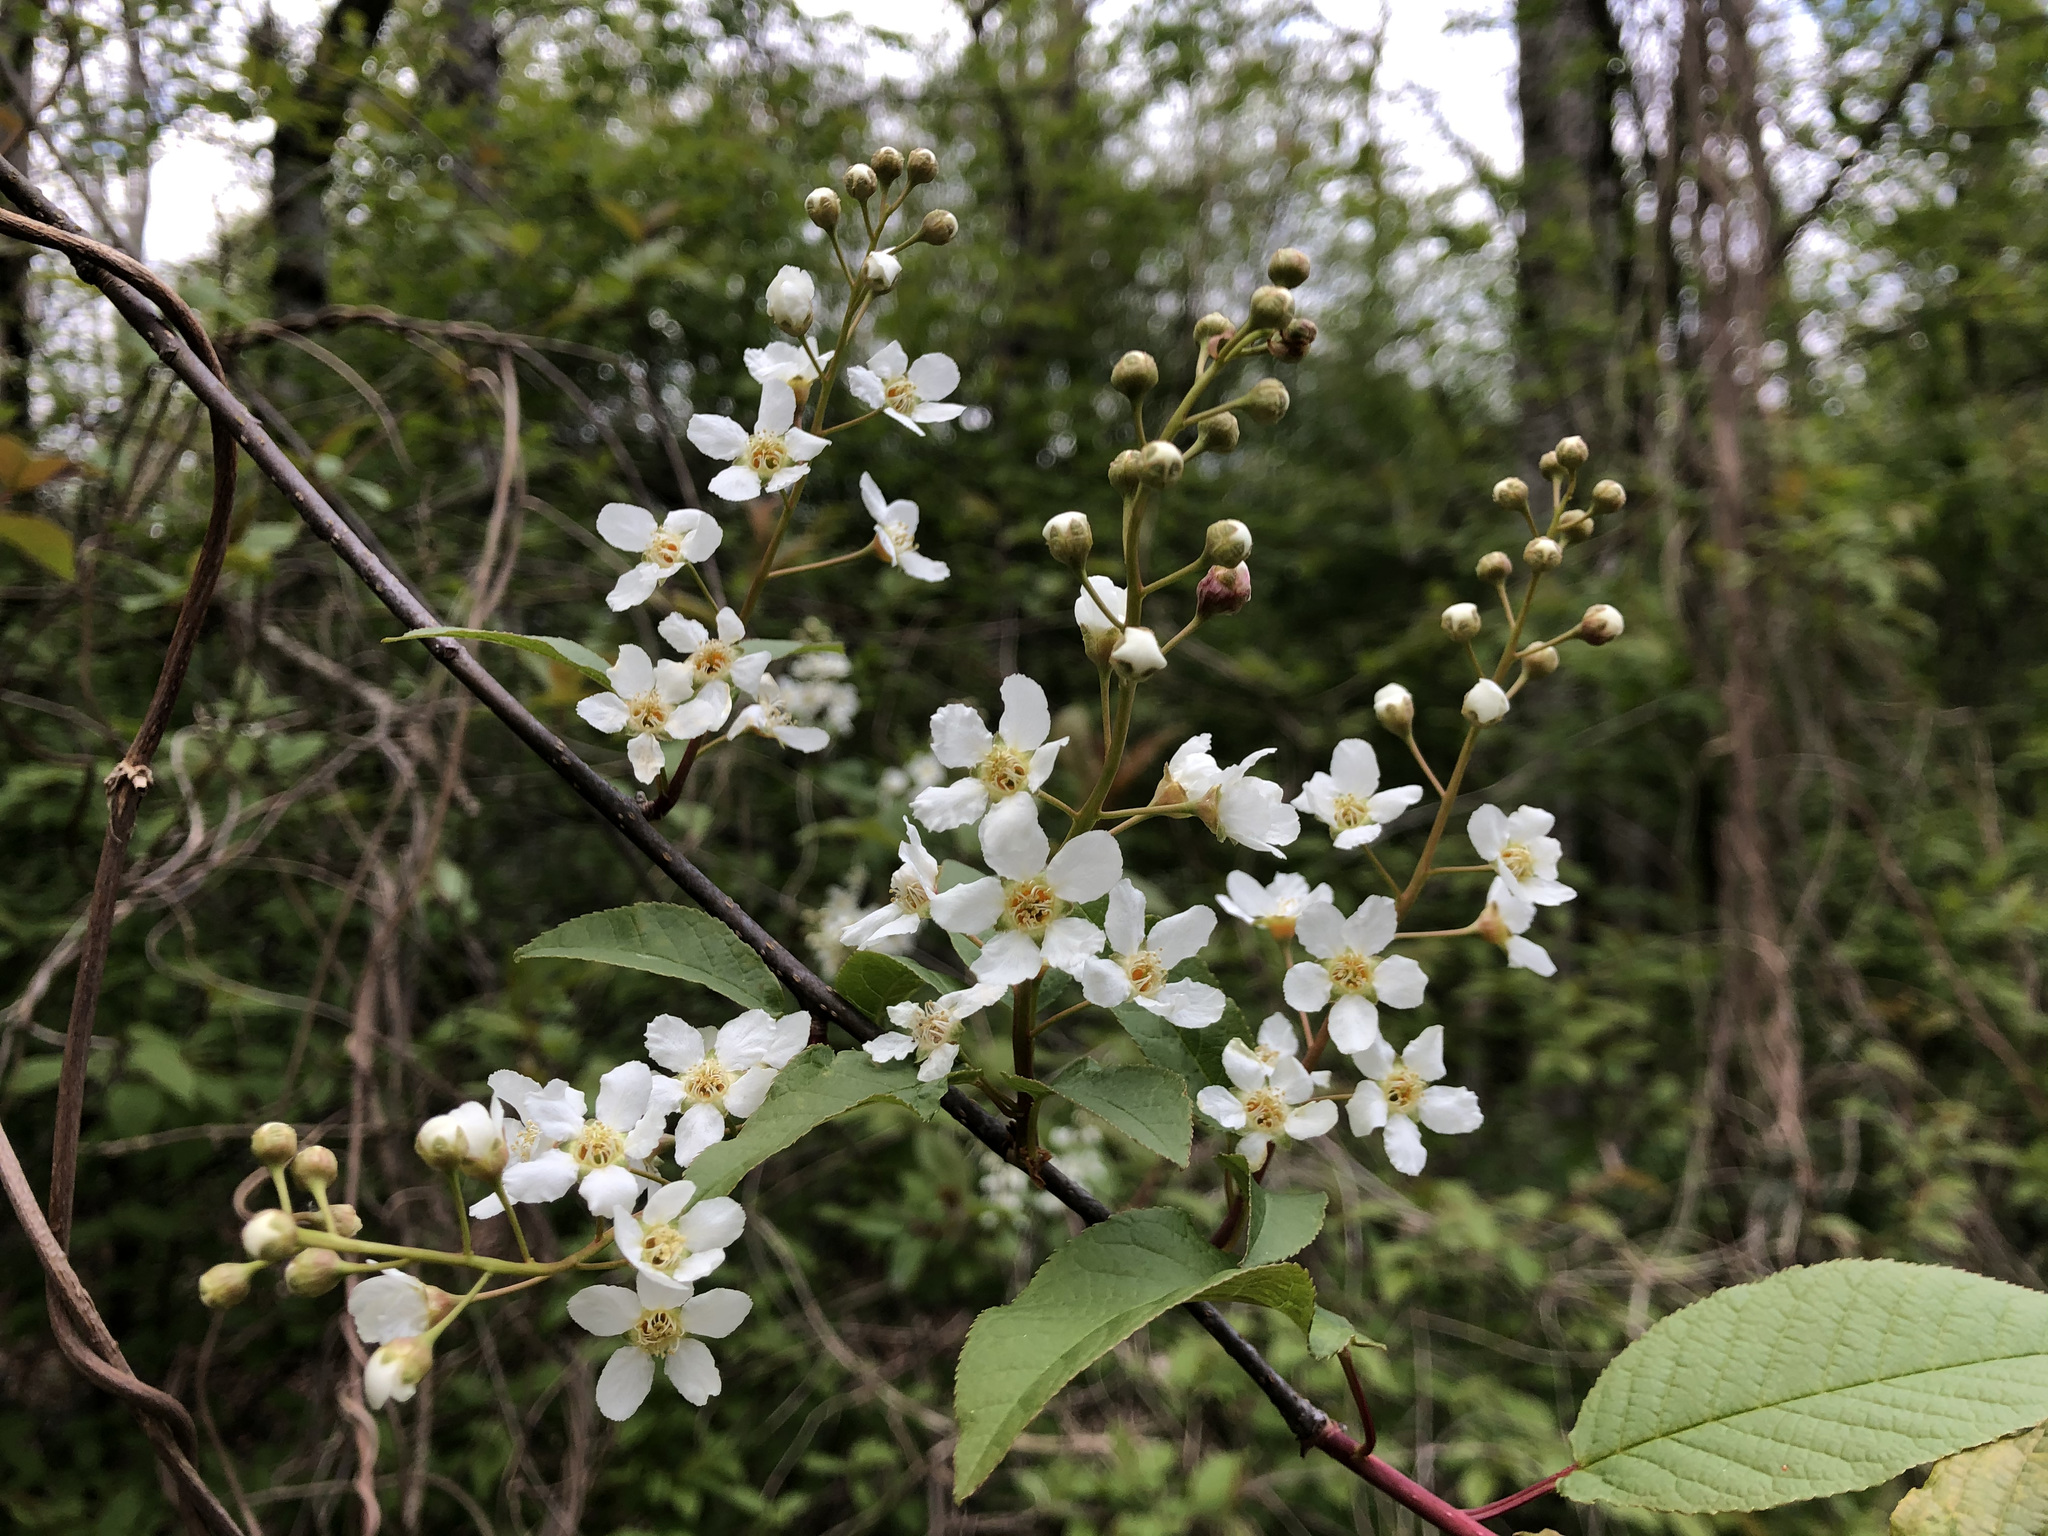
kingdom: Plantae
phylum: Tracheophyta
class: Magnoliopsida
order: Rosales
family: Rosaceae
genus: Prunus
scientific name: Prunus padus
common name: Bird cherry
